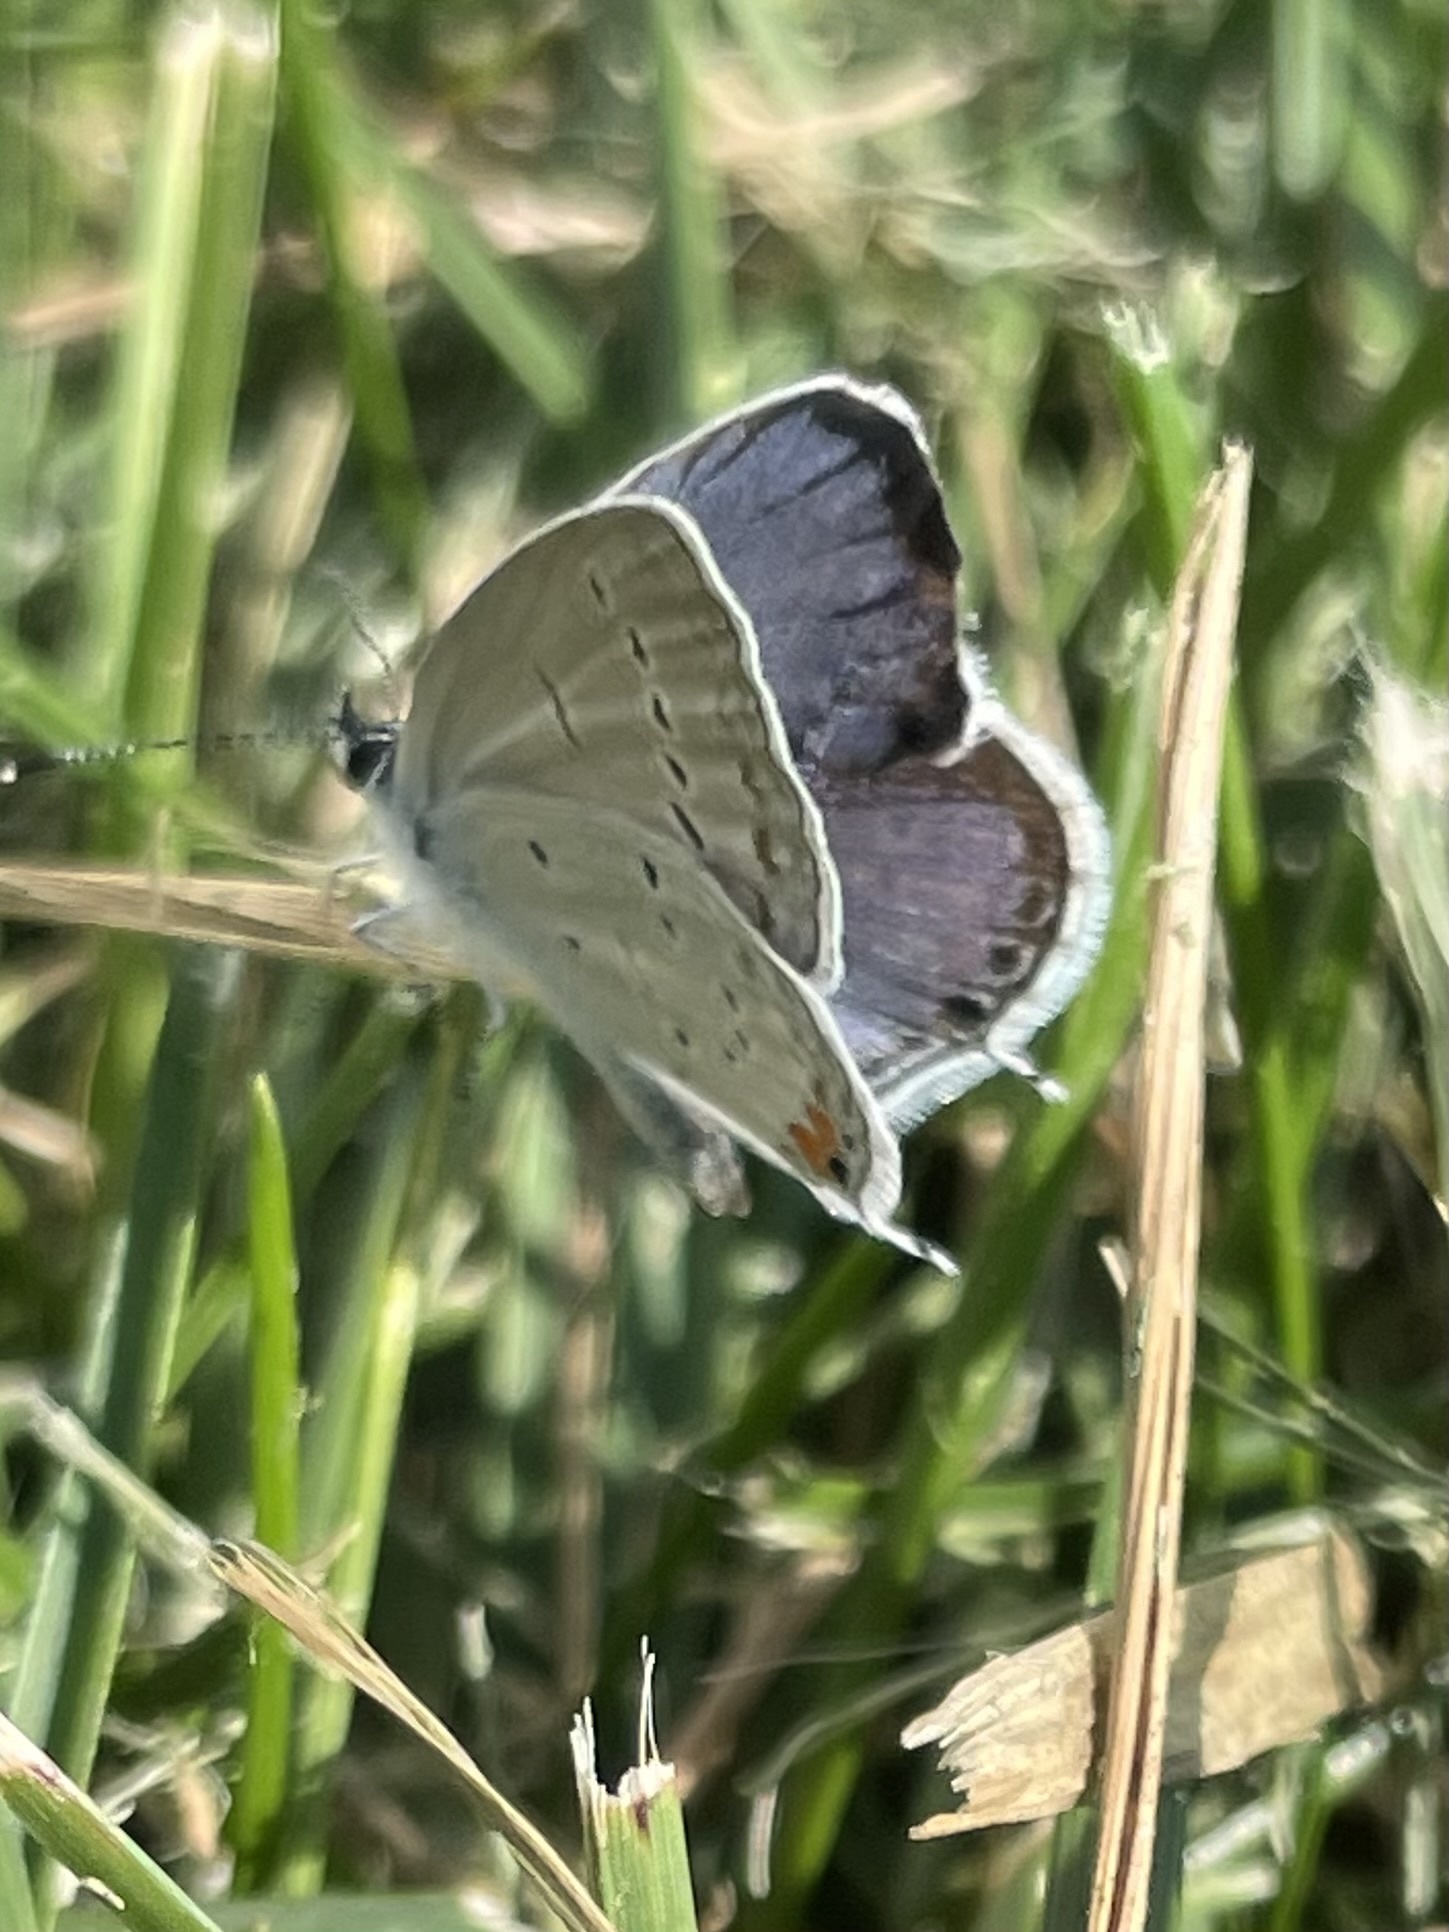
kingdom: Animalia
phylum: Arthropoda
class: Insecta
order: Lepidoptera
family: Lycaenidae
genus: Elkalyce
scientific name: Elkalyce comyntas
